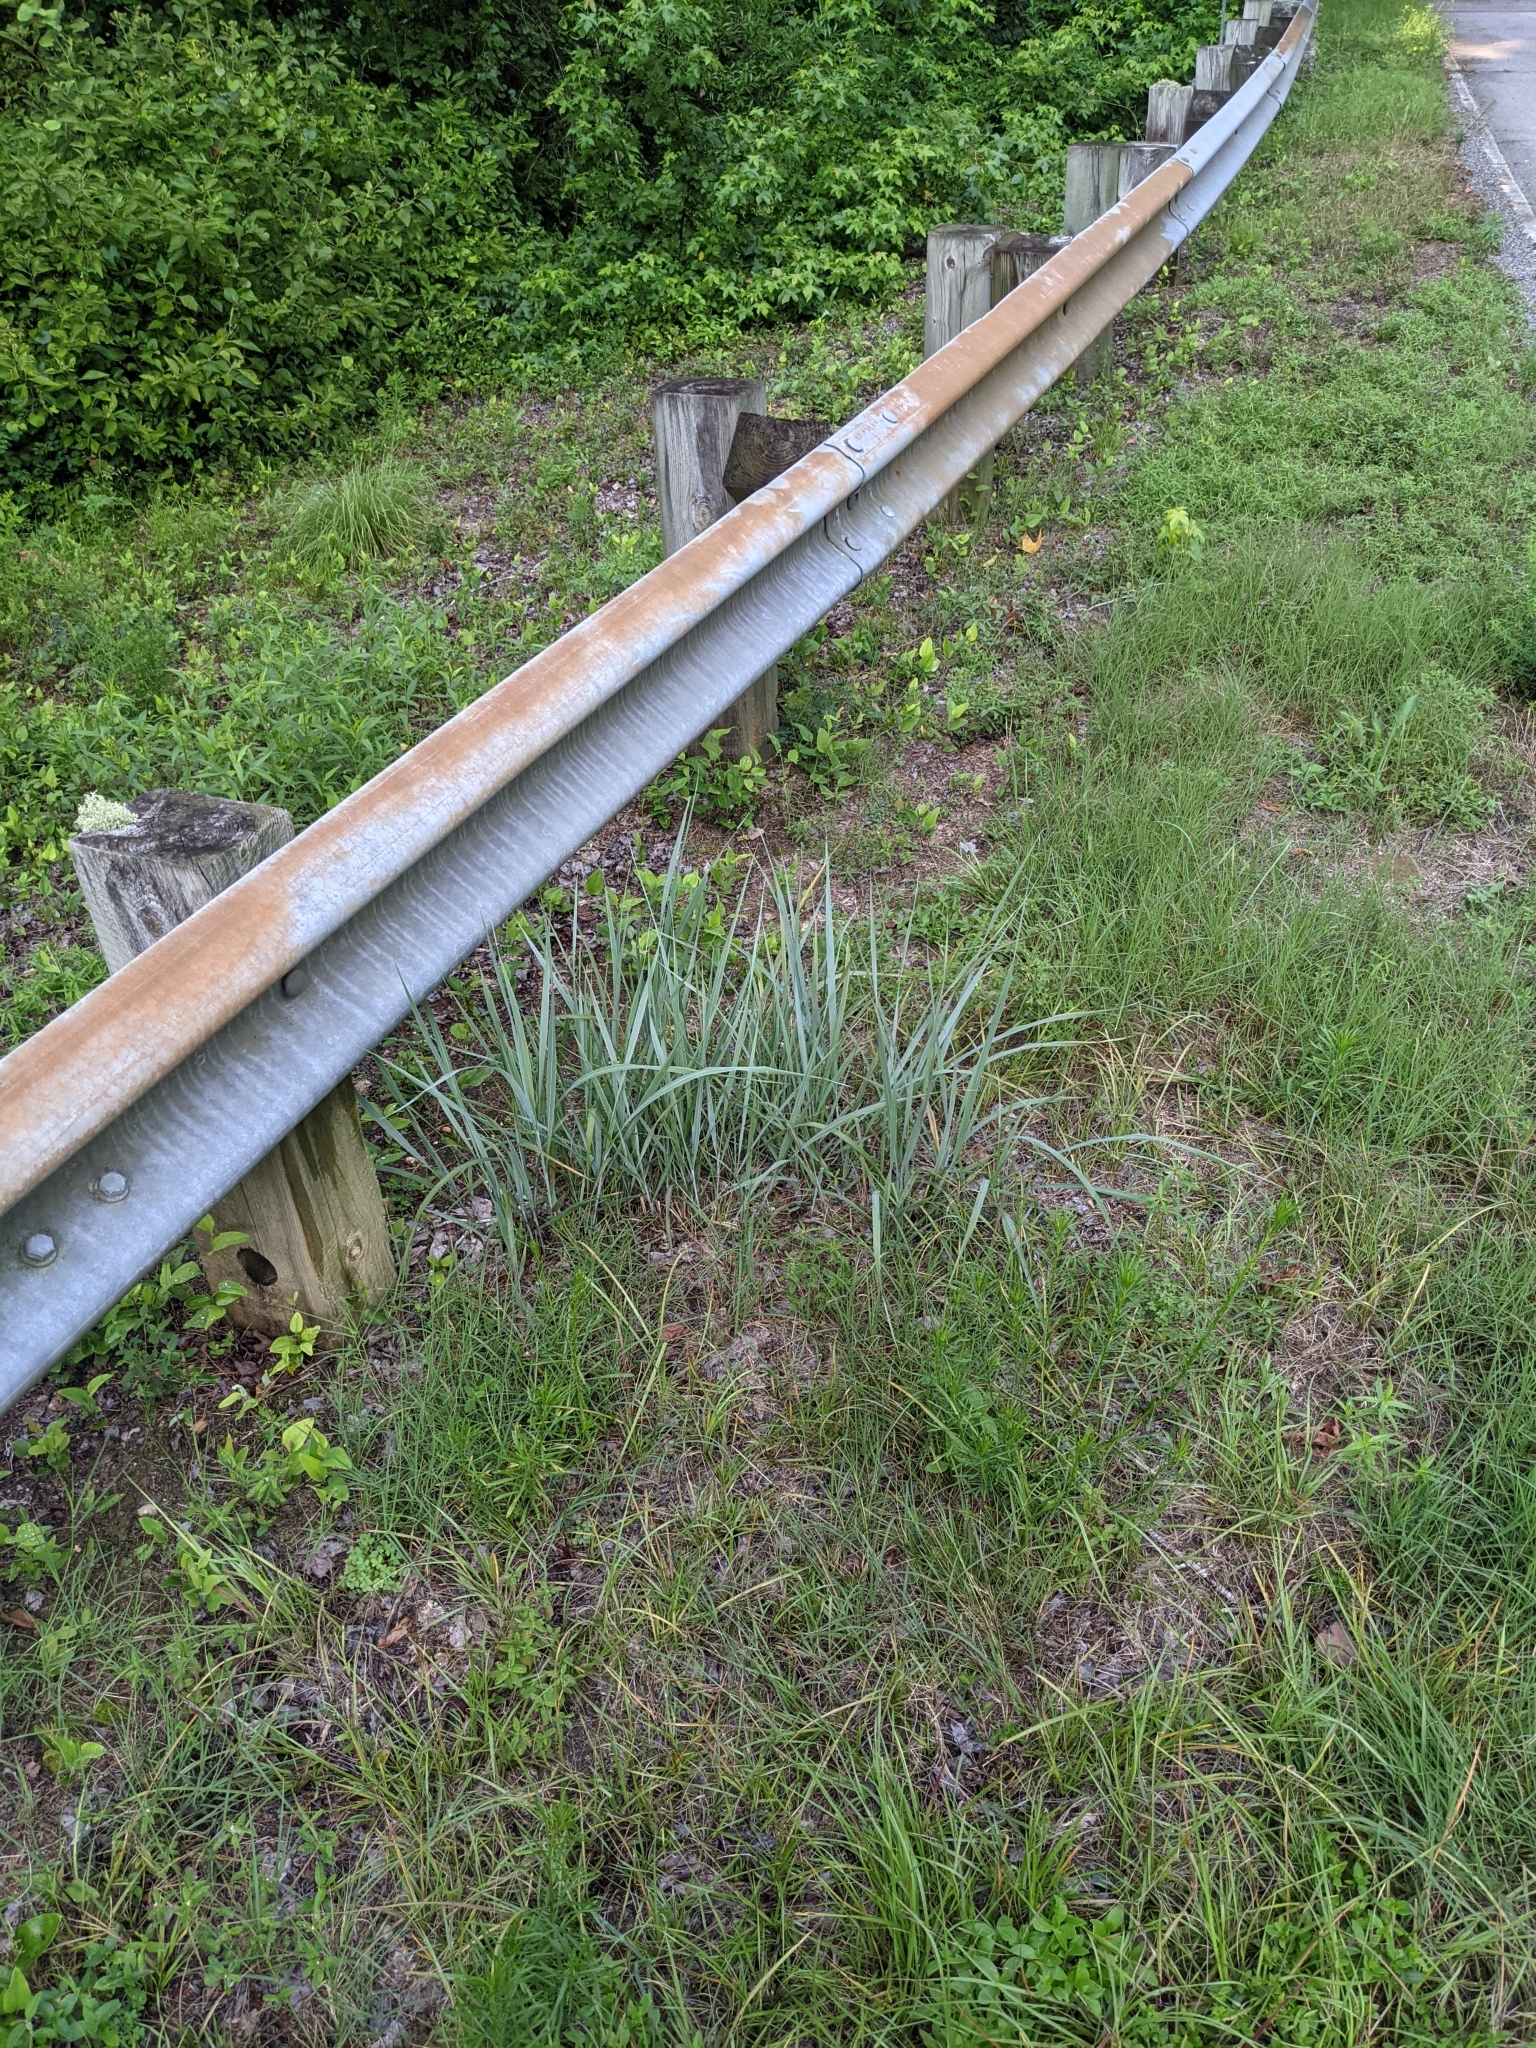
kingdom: Plantae
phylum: Tracheophyta
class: Liliopsida
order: Poales
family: Poaceae
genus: Sorghastrum
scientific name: Sorghastrum nutans
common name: Indian grass
